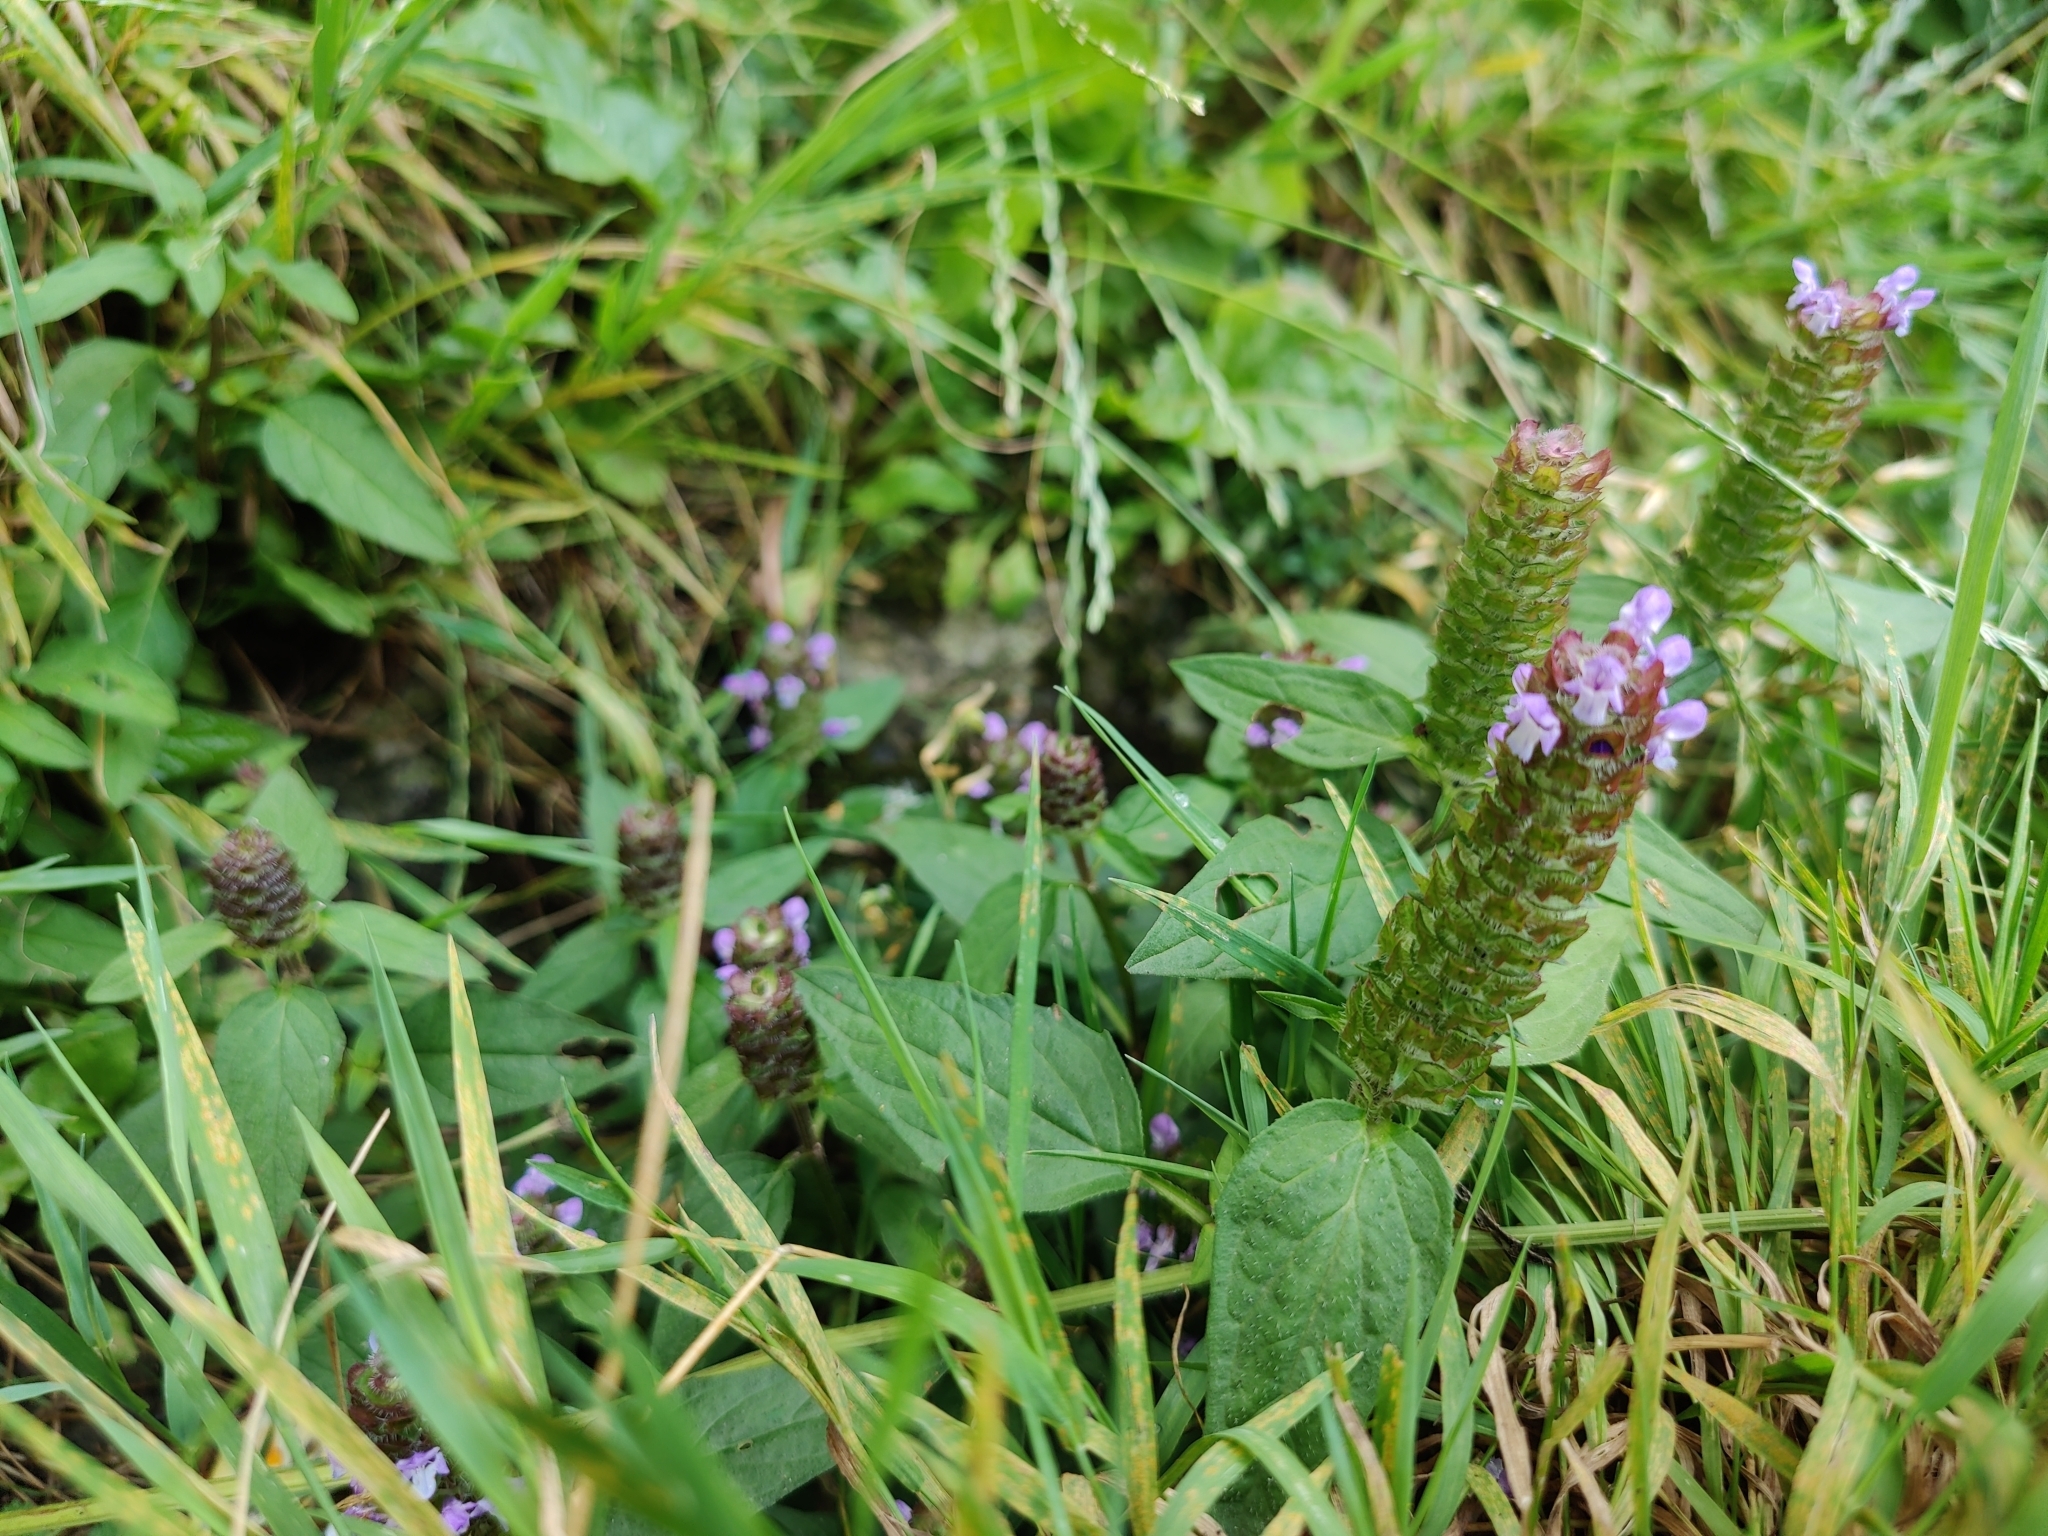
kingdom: Plantae
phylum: Tracheophyta
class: Magnoliopsida
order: Lamiales
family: Lamiaceae
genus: Prunella
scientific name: Prunella vulgaris
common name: Heal-all
